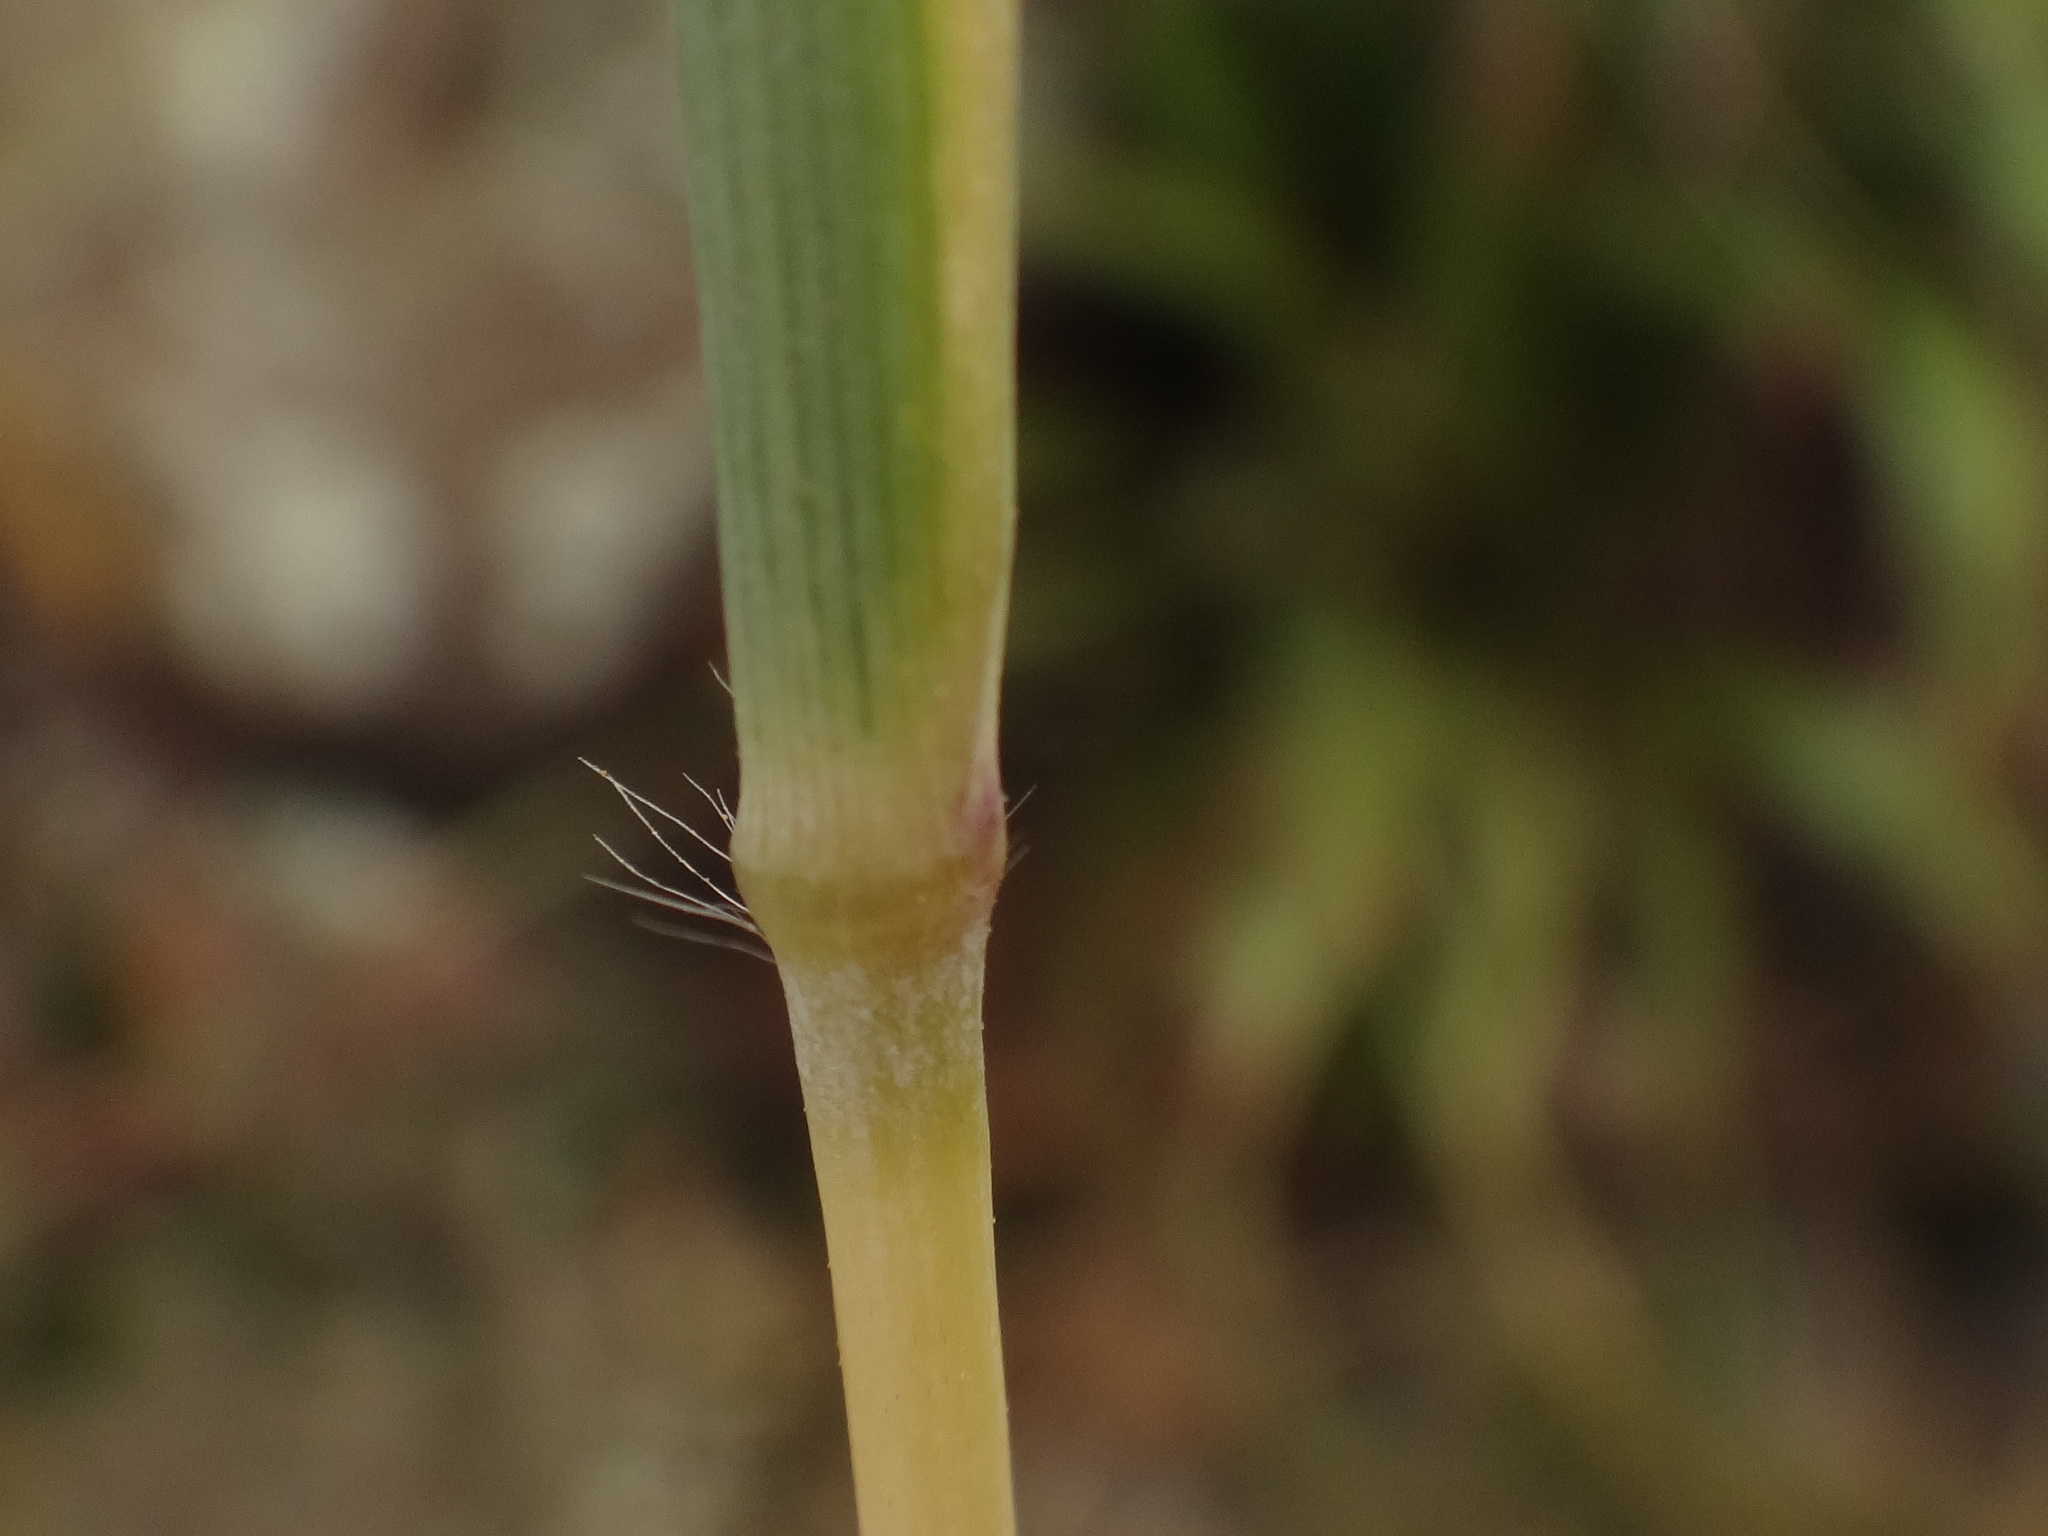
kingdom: Plantae
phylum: Tracheophyta
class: Liliopsida
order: Poales
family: Poaceae
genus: Hyparrhenia
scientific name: Hyparrhenia hirta
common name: Thatching grass
